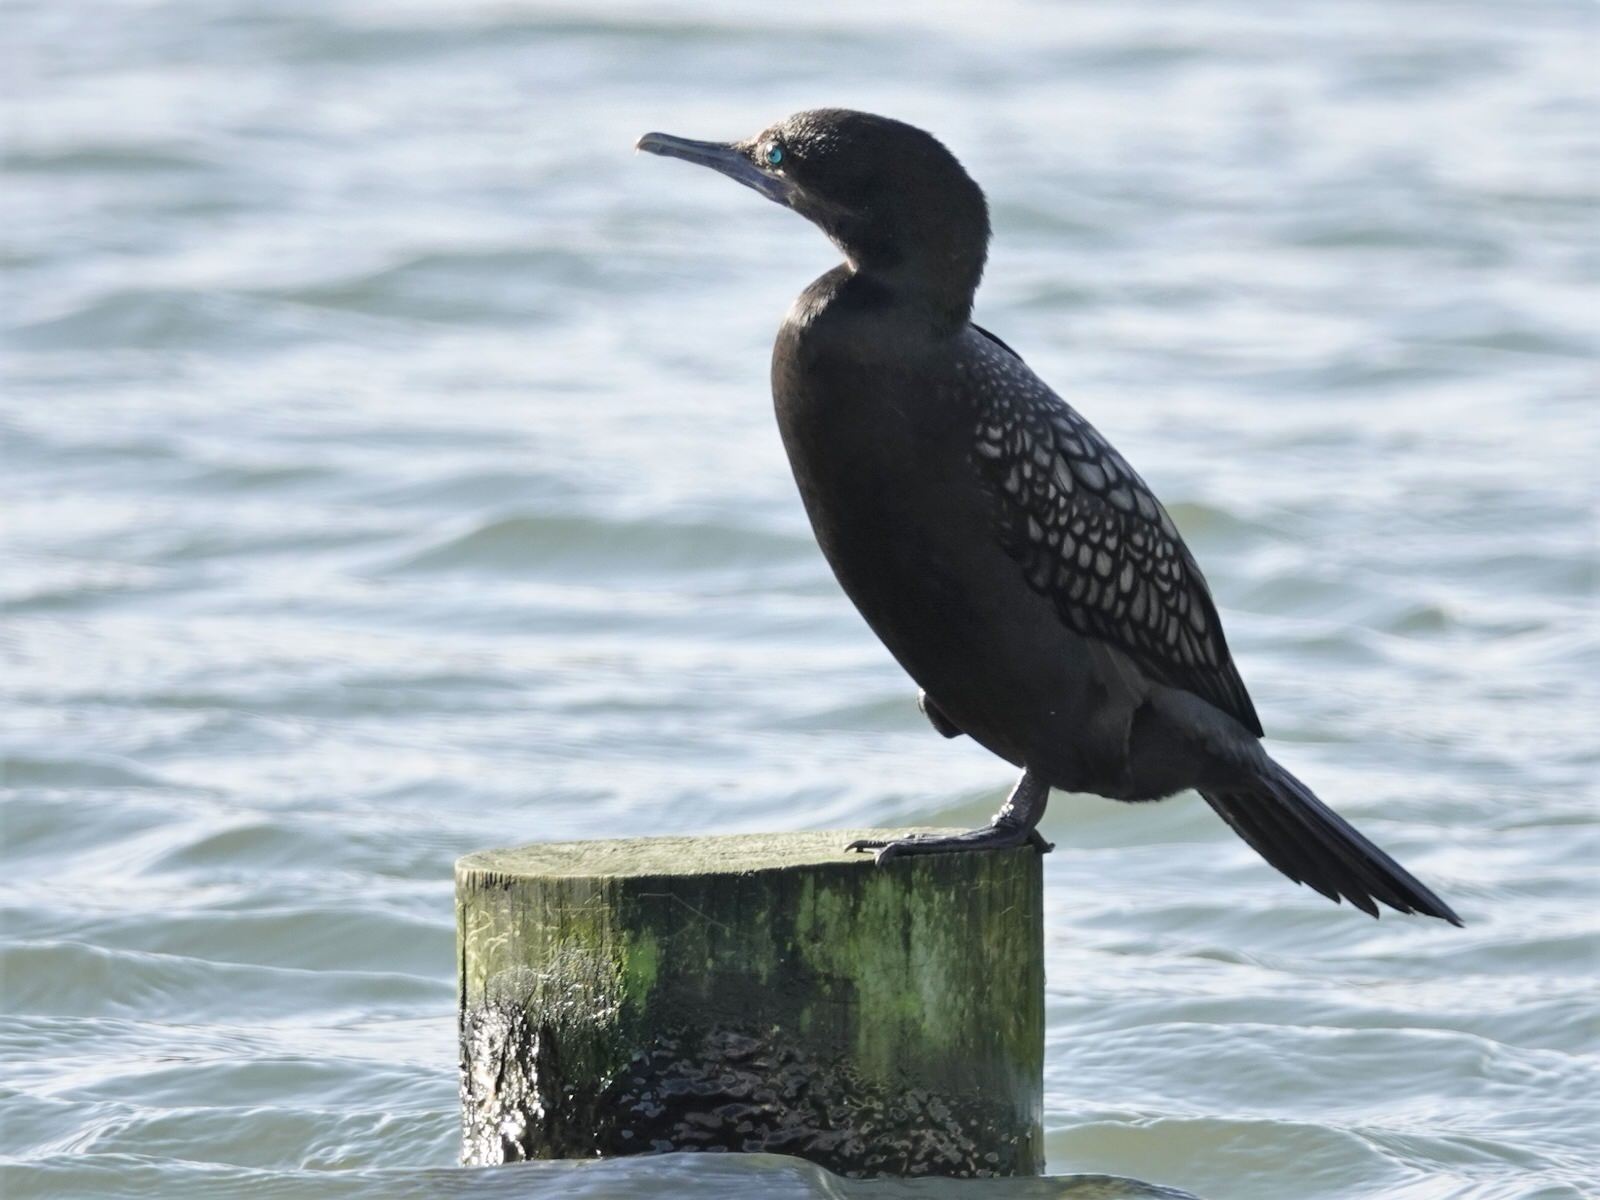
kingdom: Animalia
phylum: Chordata
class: Aves
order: Suliformes
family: Phalacrocoracidae
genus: Phalacrocorax
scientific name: Phalacrocorax sulcirostris
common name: Little black cormorant
